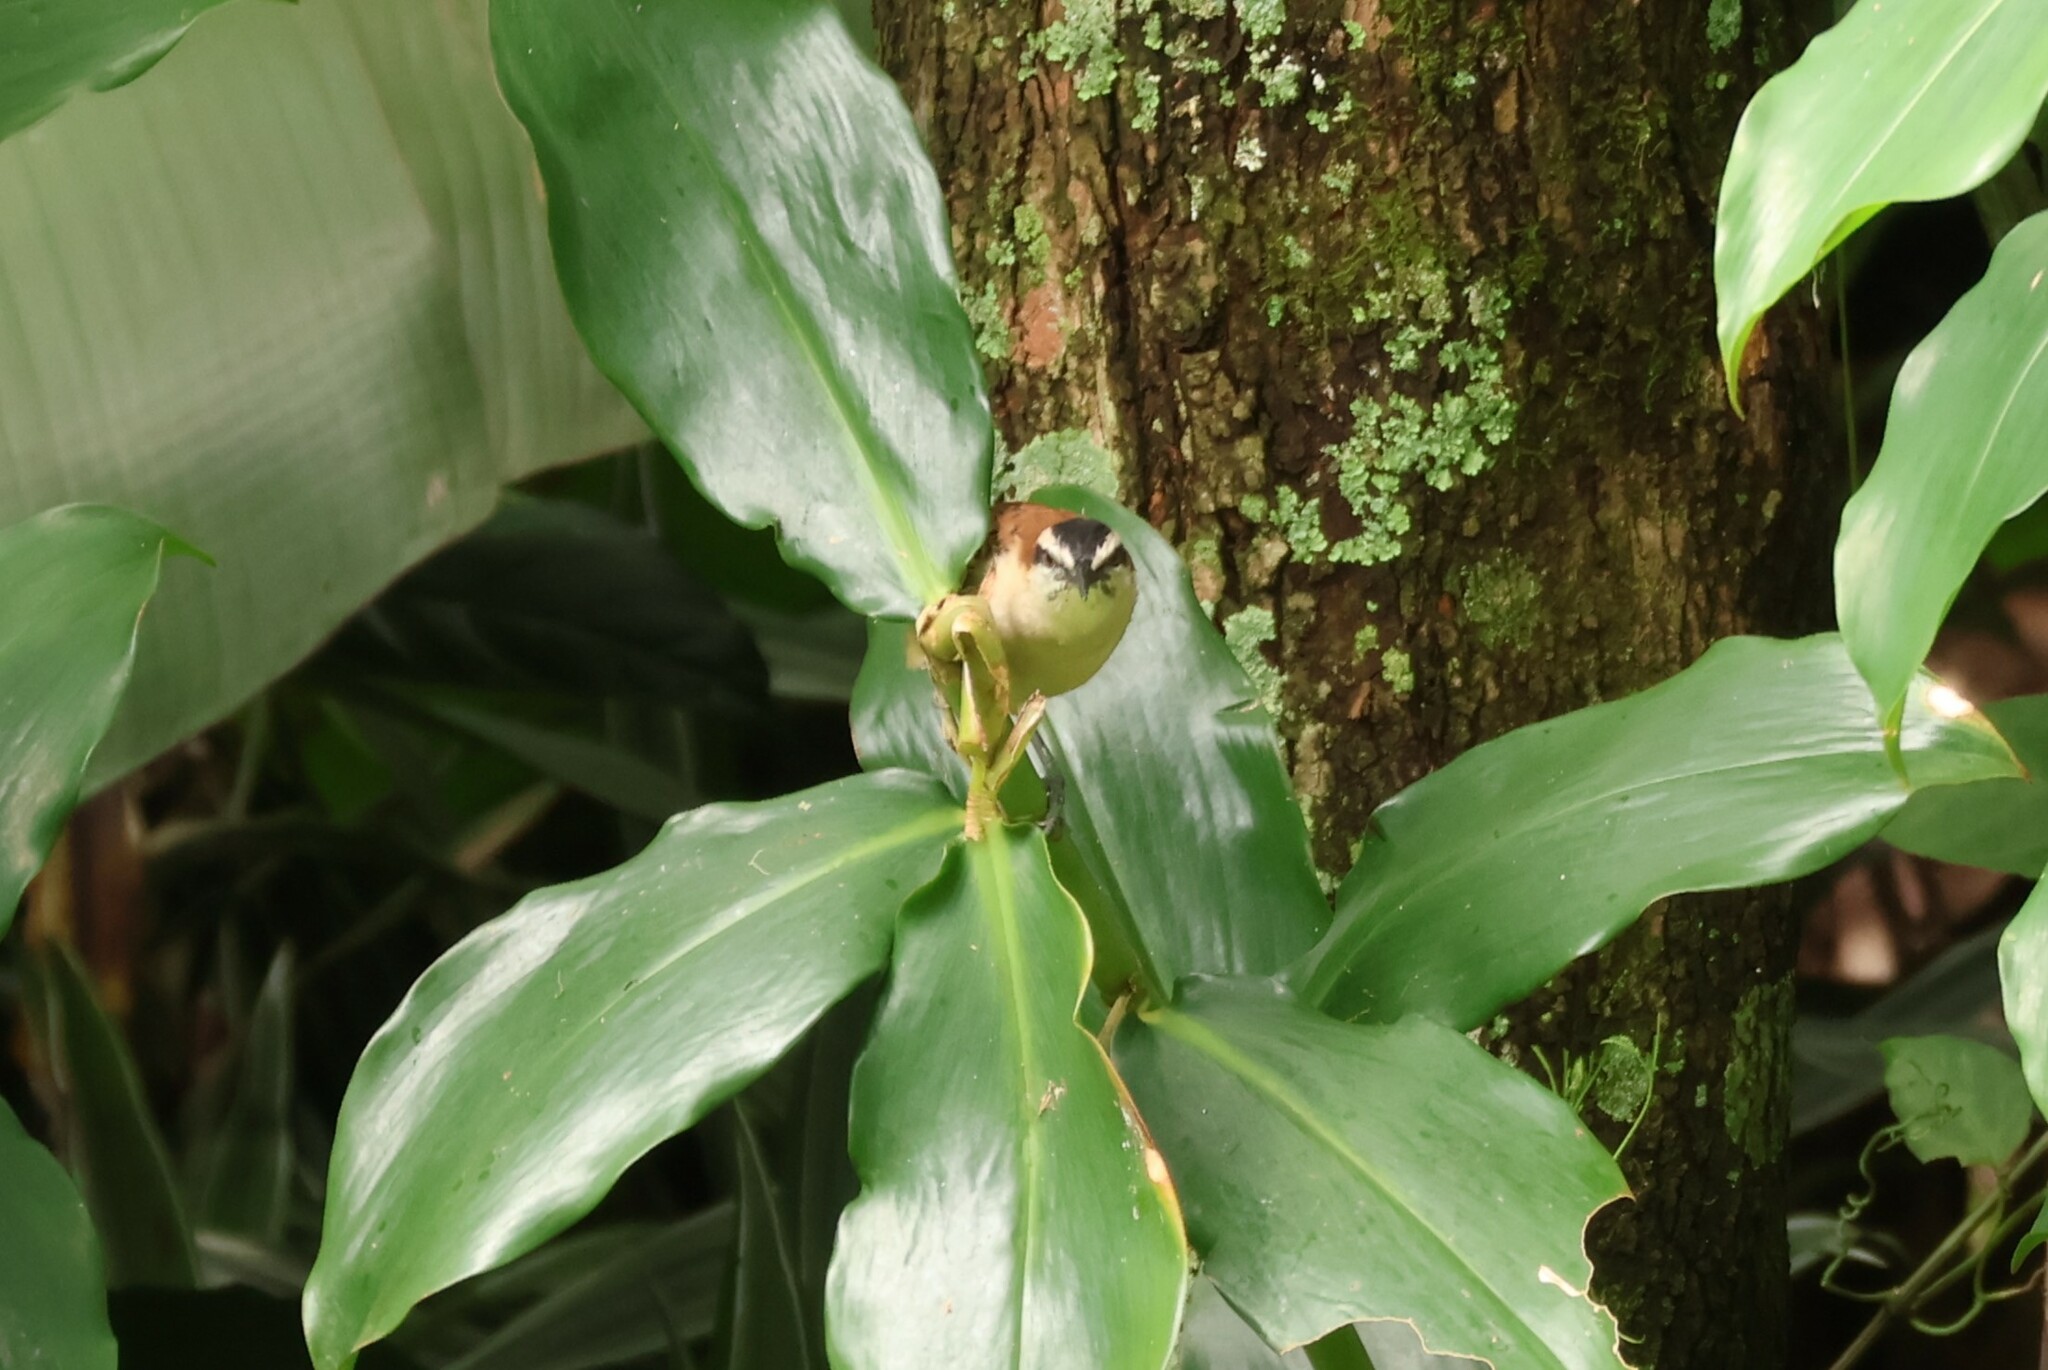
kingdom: Animalia
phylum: Chordata
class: Aves
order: Passeriformes
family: Troglodytidae
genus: Campylorhynchus
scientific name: Campylorhynchus rufinucha
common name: Rufous-naped wren
